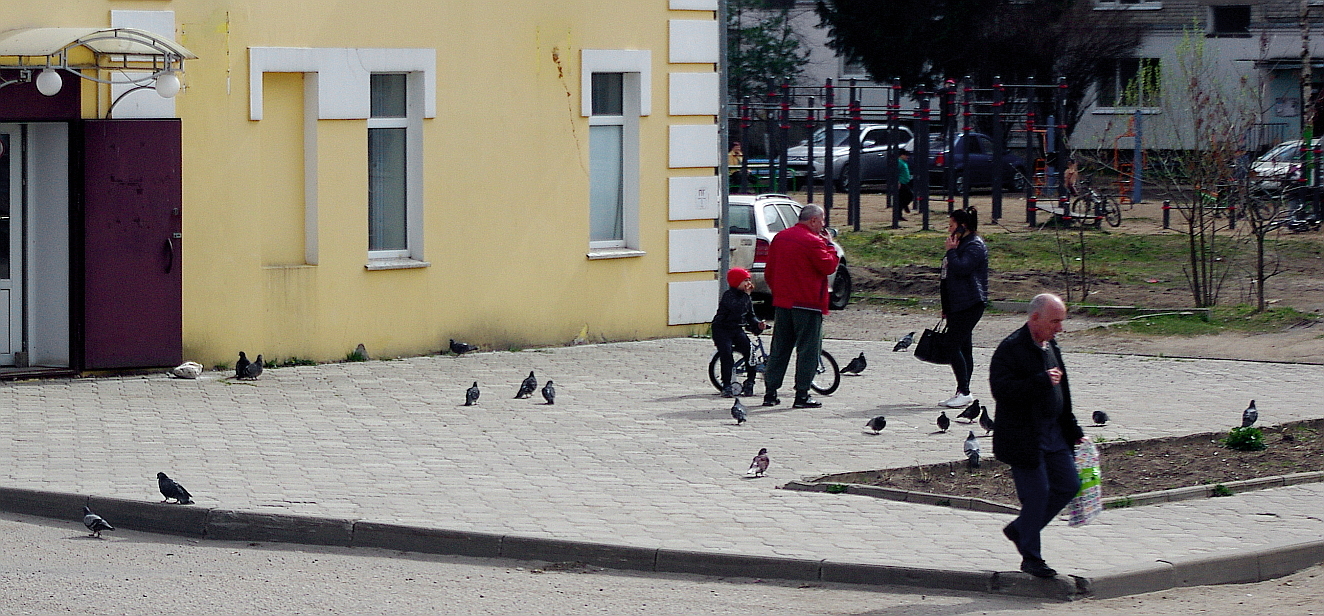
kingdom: Animalia
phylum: Chordata
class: Aves
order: Columbiformes
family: Columbidae
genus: Columba
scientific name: Columba livia
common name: Rock pigeon
